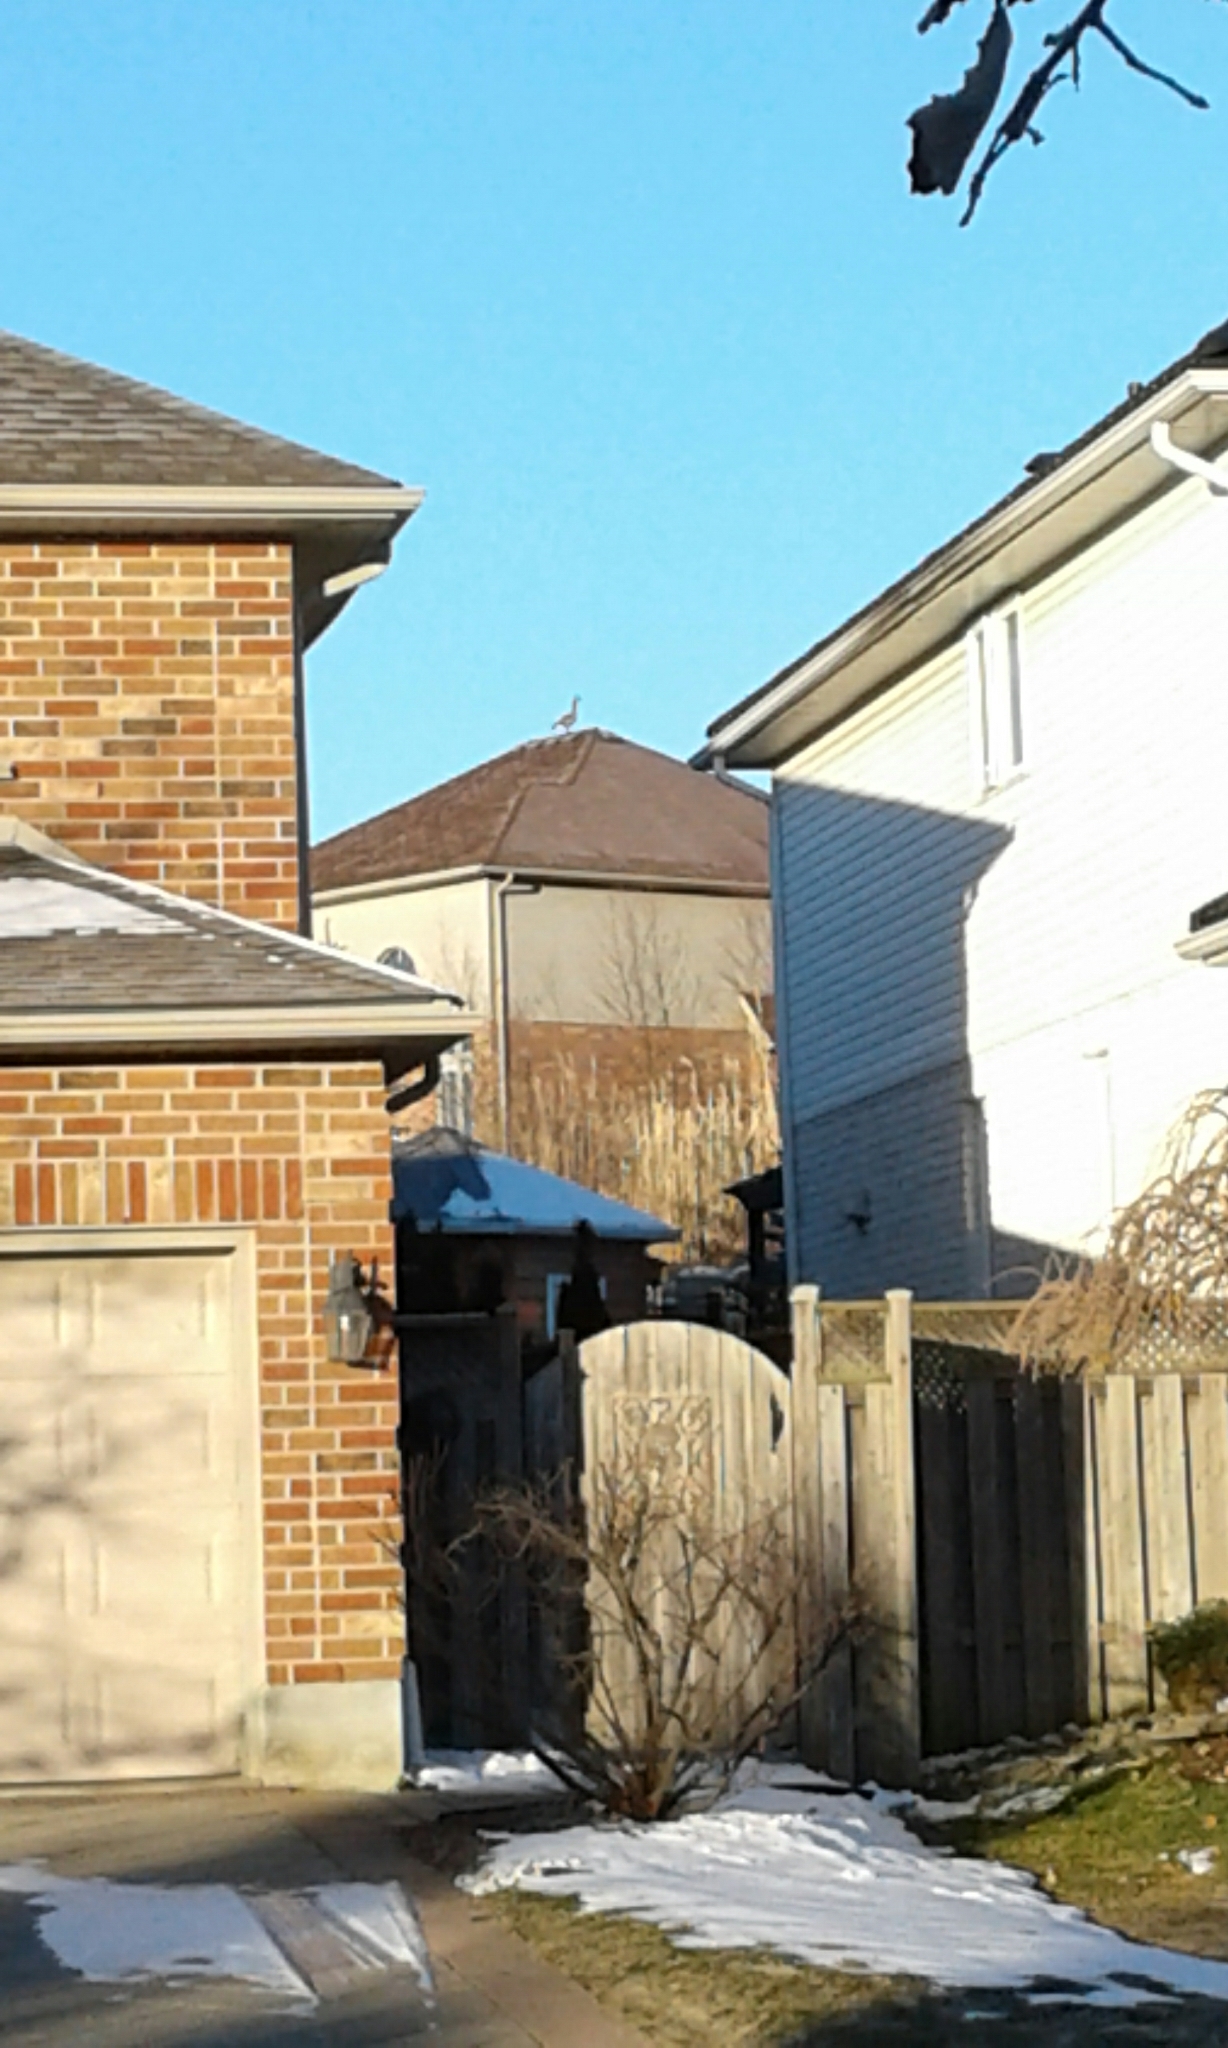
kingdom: Animalia
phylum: Chordata
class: Aves
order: Anseriformes
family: Anatidae
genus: Branta
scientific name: Branta canadensis
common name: Canada goose
